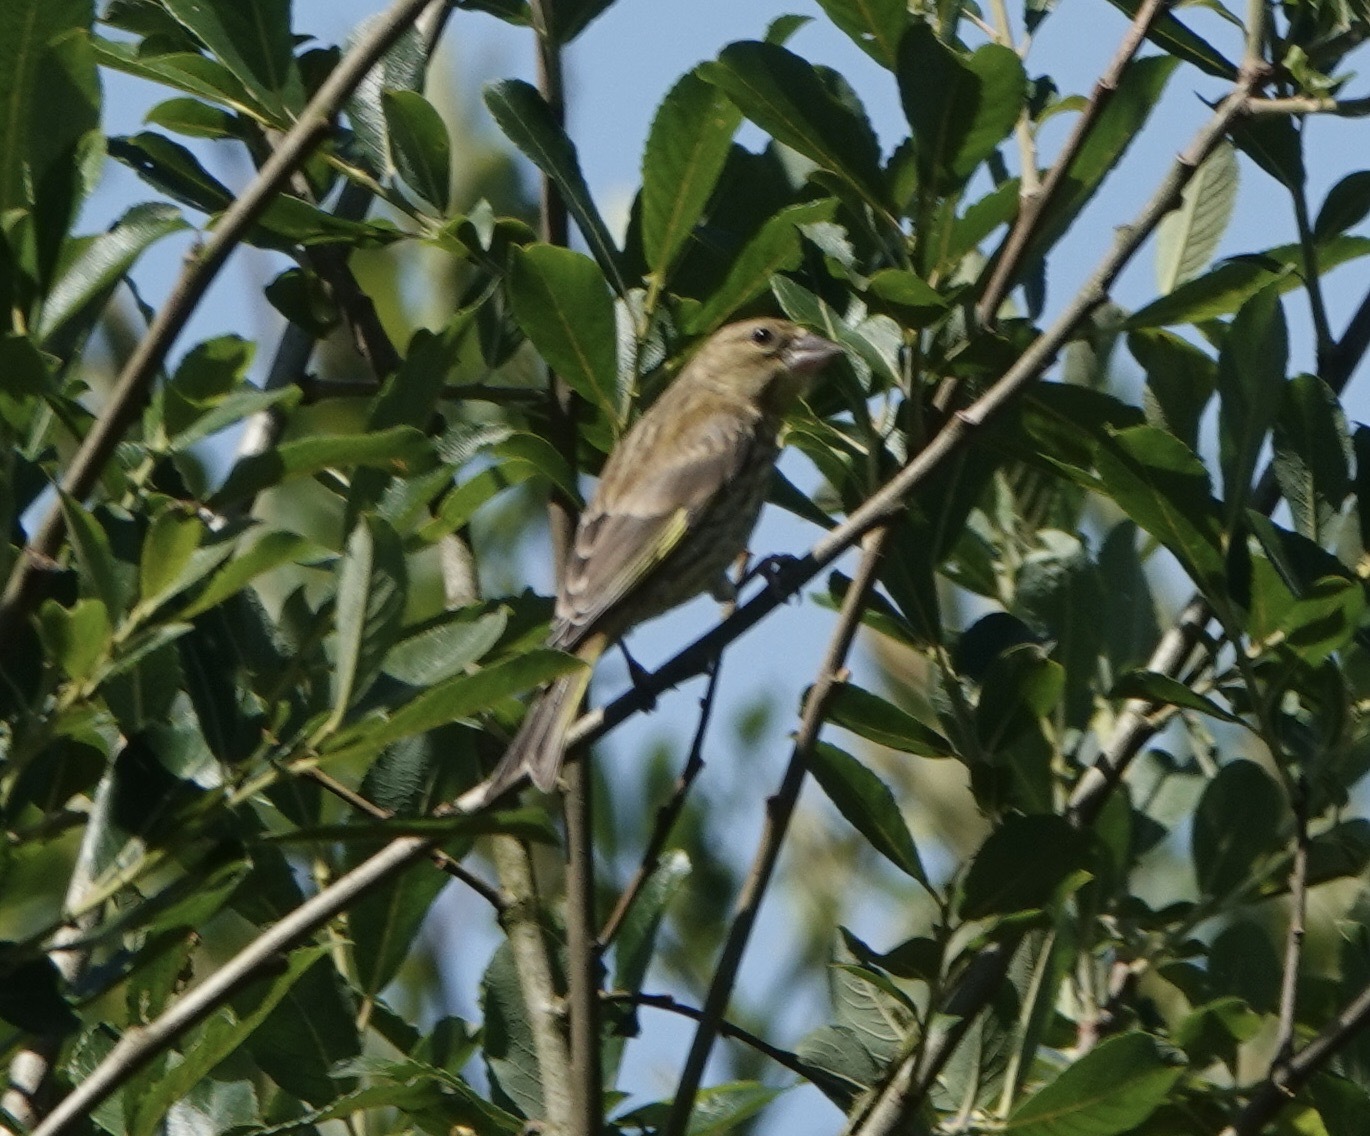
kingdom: Plantae
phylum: Tracheophyta
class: Liliopsida
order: Poales
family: Poaceae
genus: Chloris
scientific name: Chloris chloris
